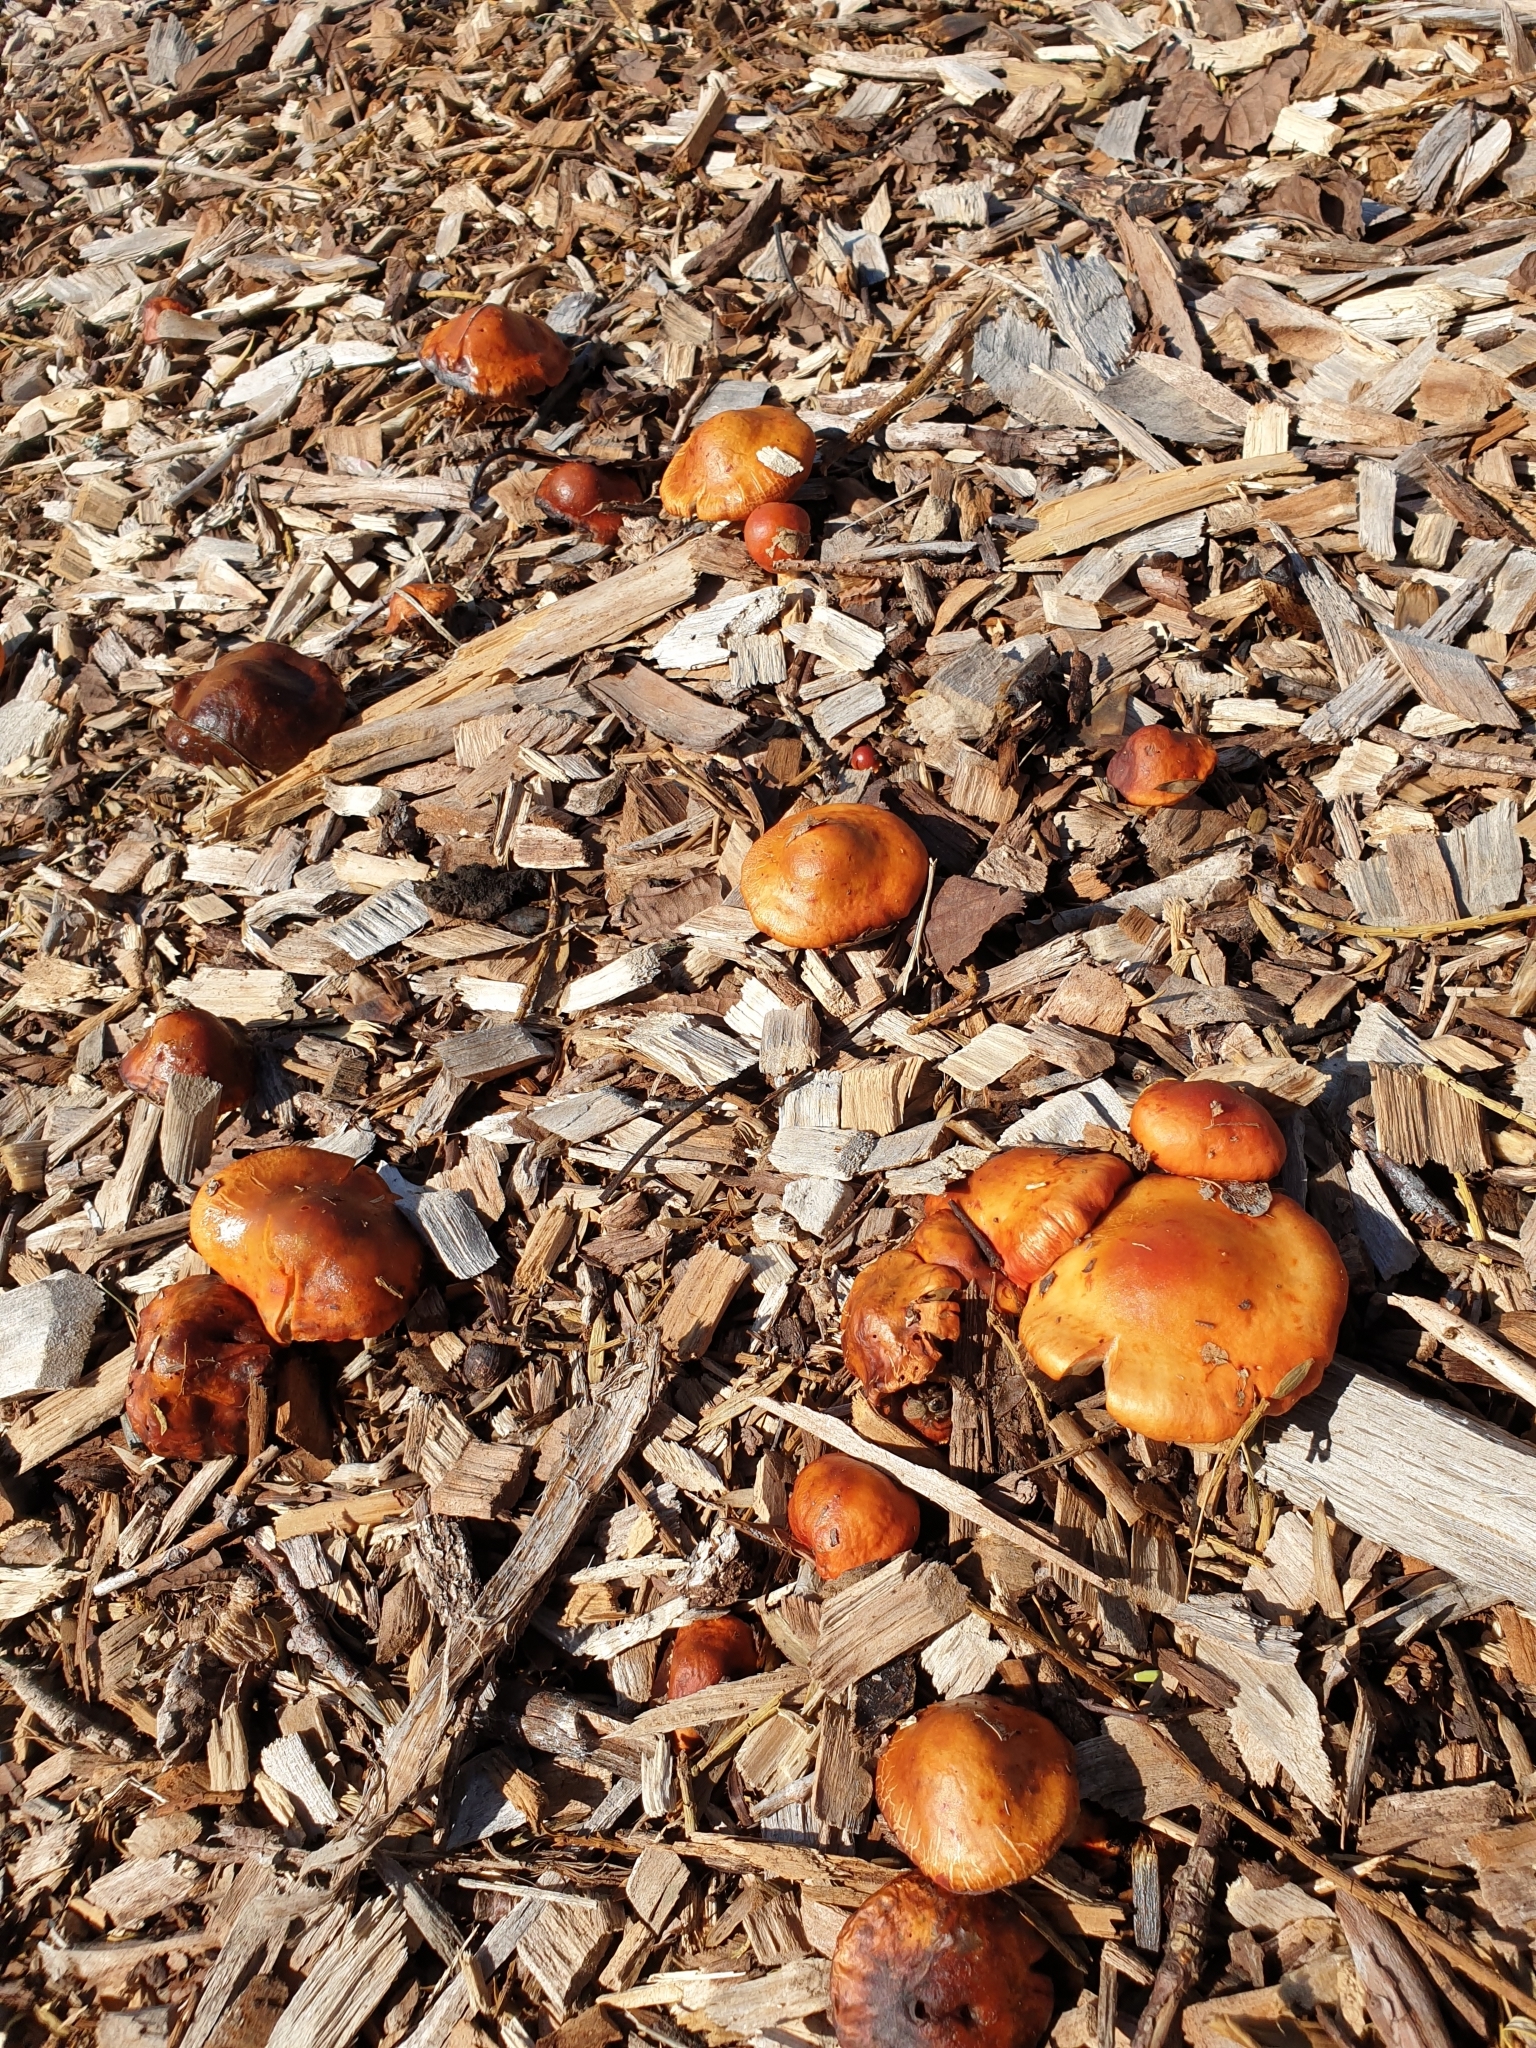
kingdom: Fungi
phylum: Basidiomycota
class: Agaricomycetes
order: Agaricales
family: Strophariaceae
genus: Leratiomyces
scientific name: Leratiomyces ceres
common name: Redlead roundhead
